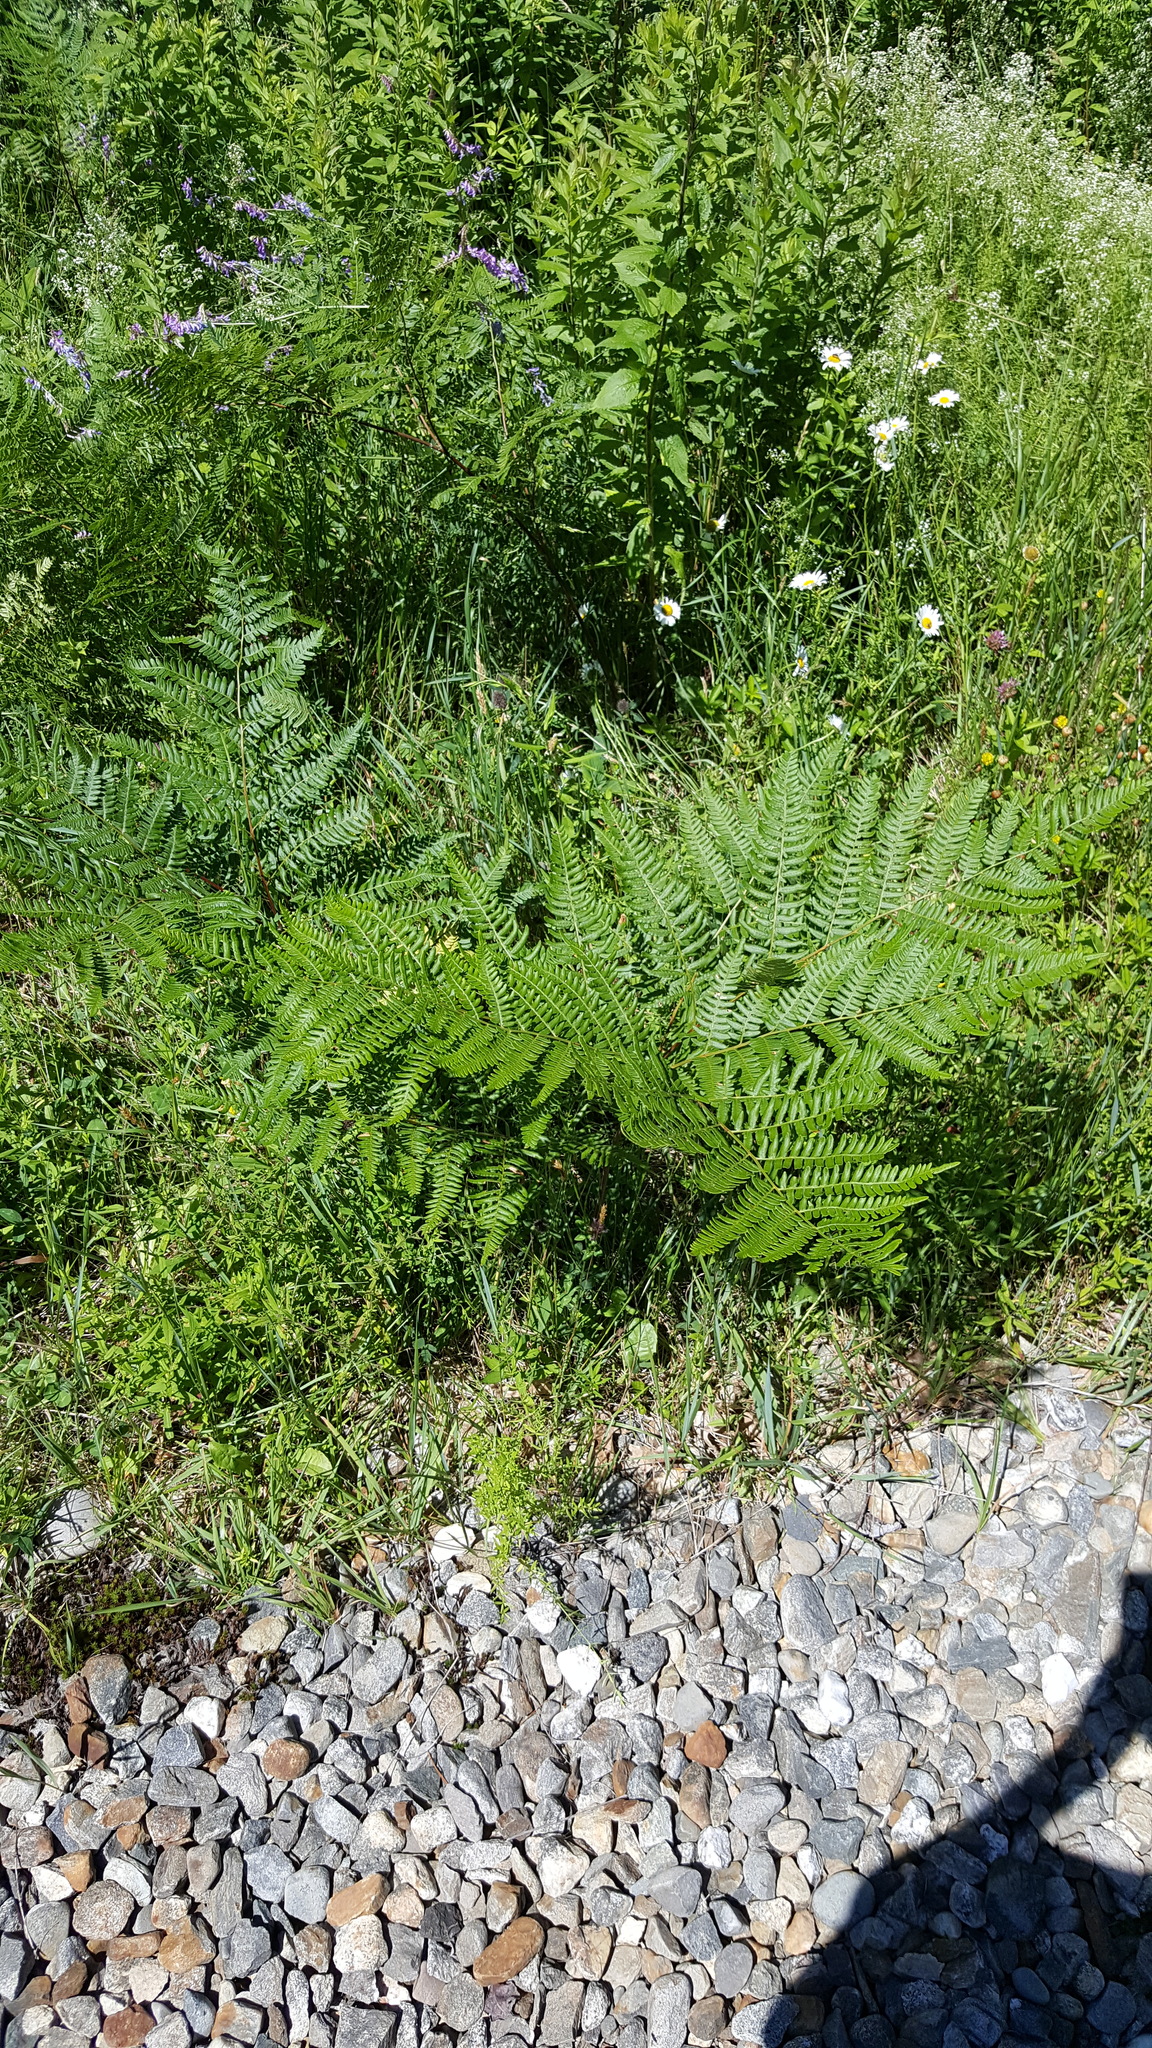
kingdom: Plantae
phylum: Tracheophyta
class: Polypodiopsida
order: Polypodiales
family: Dennstaedtiaceae
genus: Pteridium
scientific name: Pteridium aquilinum
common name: Bracken
